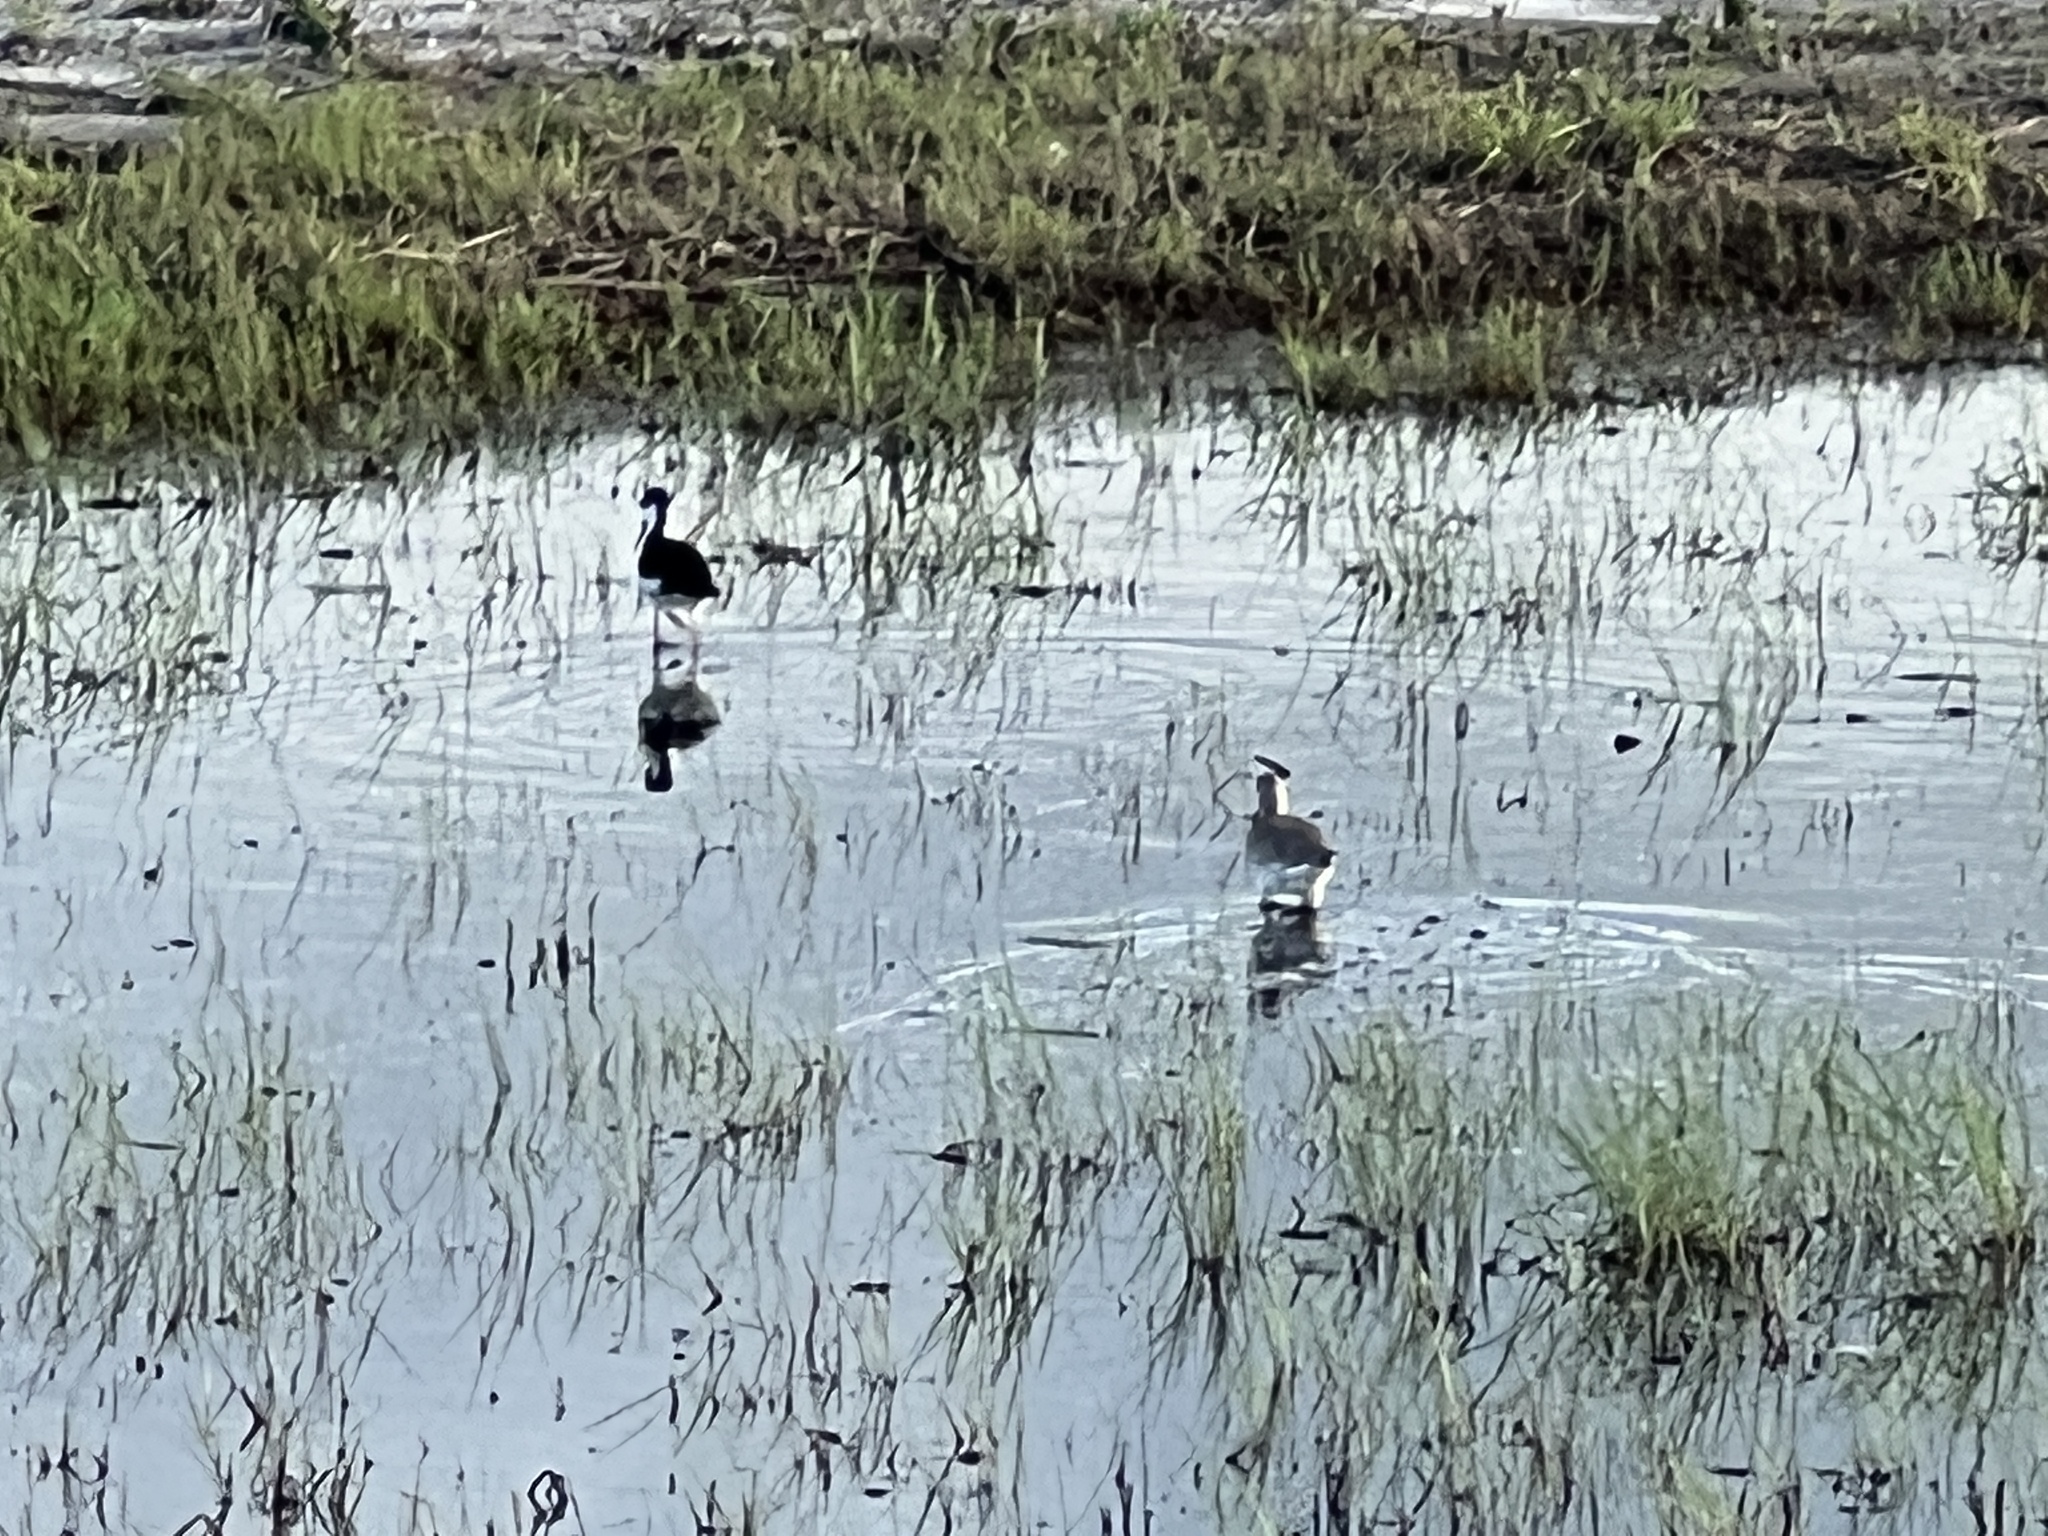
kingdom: Animalia
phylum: Chordata
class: Aves
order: Charadriiformes
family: Recurvirostridae
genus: Himantopus
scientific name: Himantopus mexicanus
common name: Black-necked stilt
